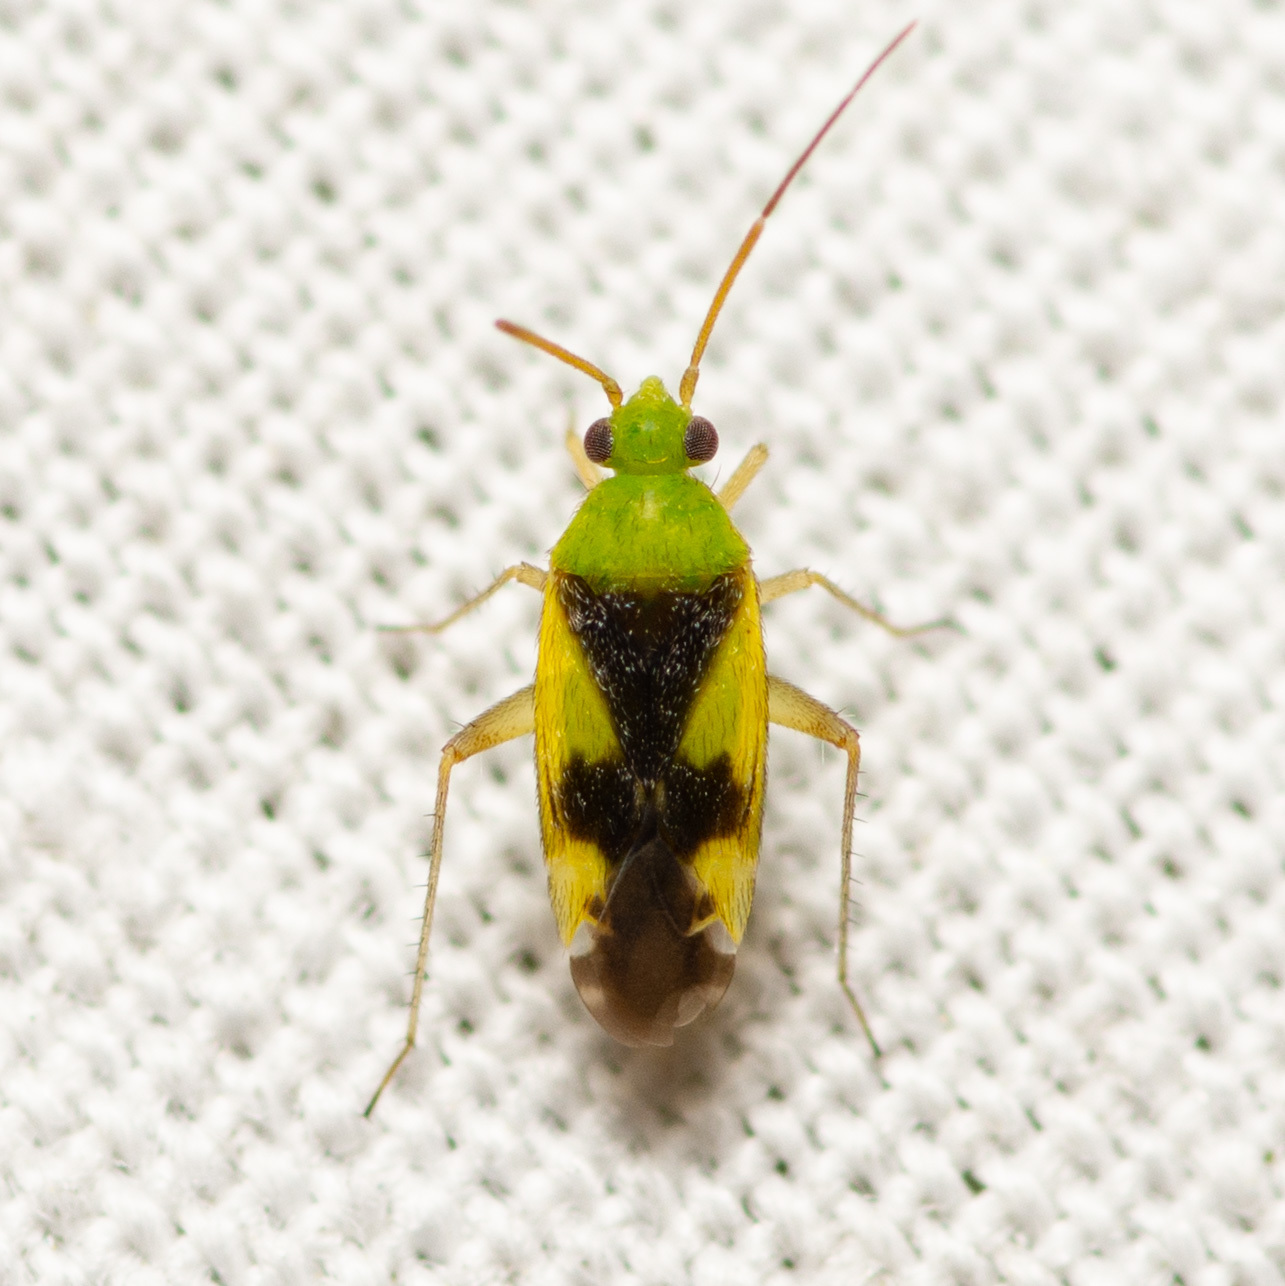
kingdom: Animalia
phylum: Arthropoda
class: Insecta
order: Hemiptera
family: Miridae
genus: Reuteroscopus
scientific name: Reuteroscopus ornatus
